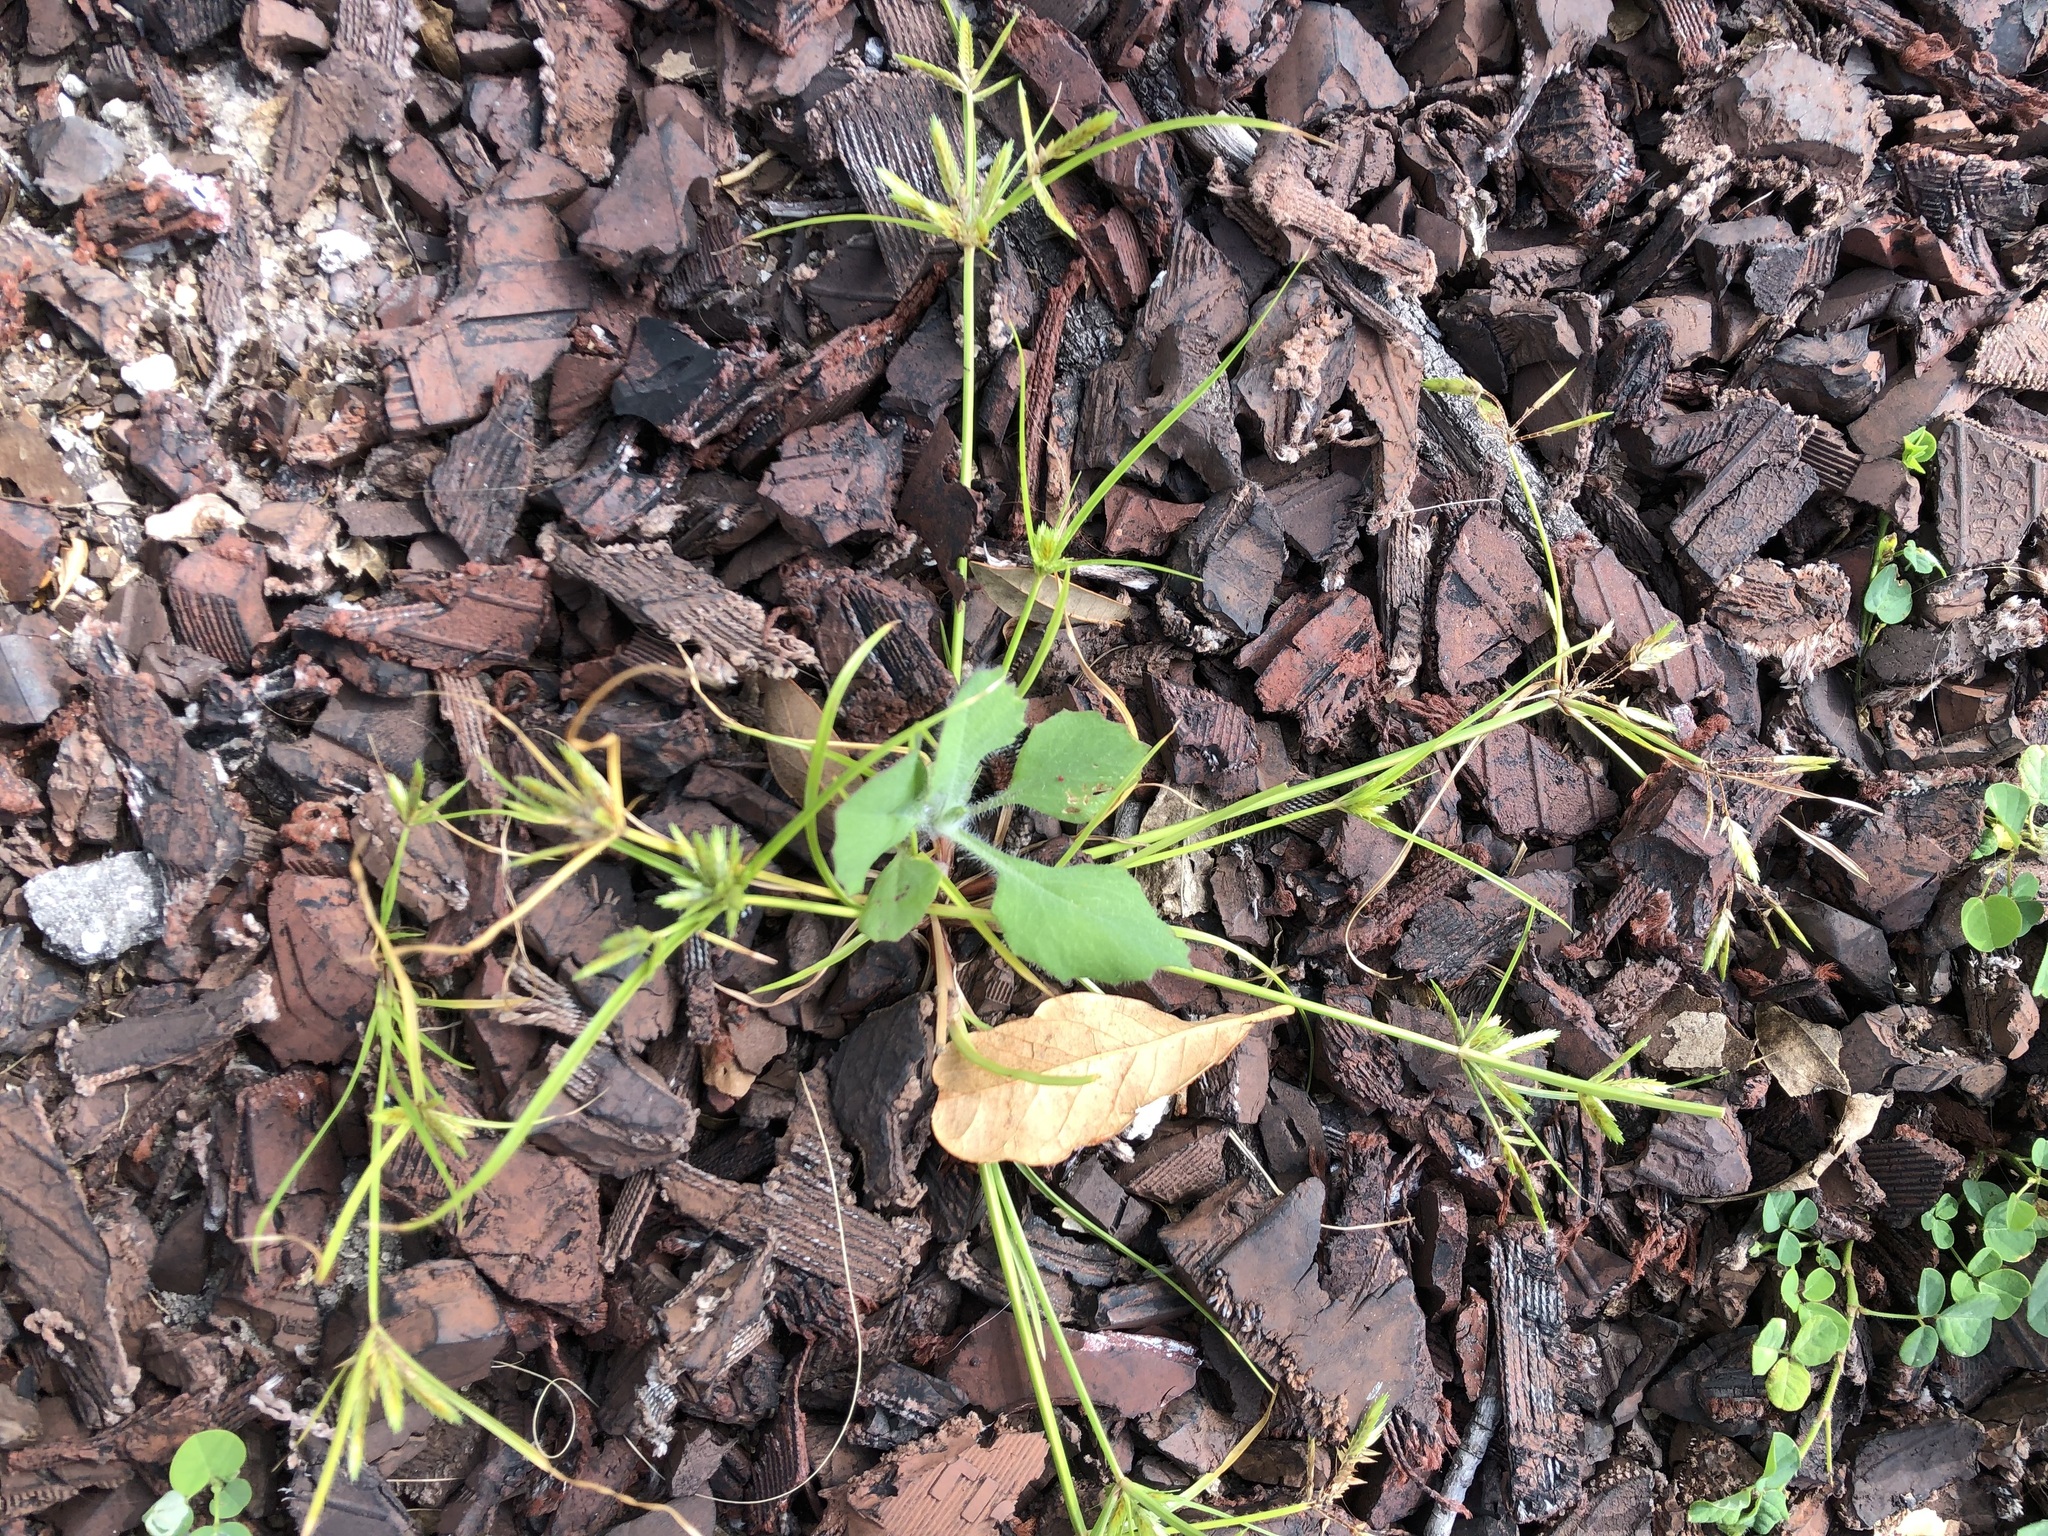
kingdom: Plantae
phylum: Tracheophyta
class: Liliopsida
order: Poales
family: Cyperaceae
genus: Cyperus
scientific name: Cyperus compressus
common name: Poorland flatsedge
